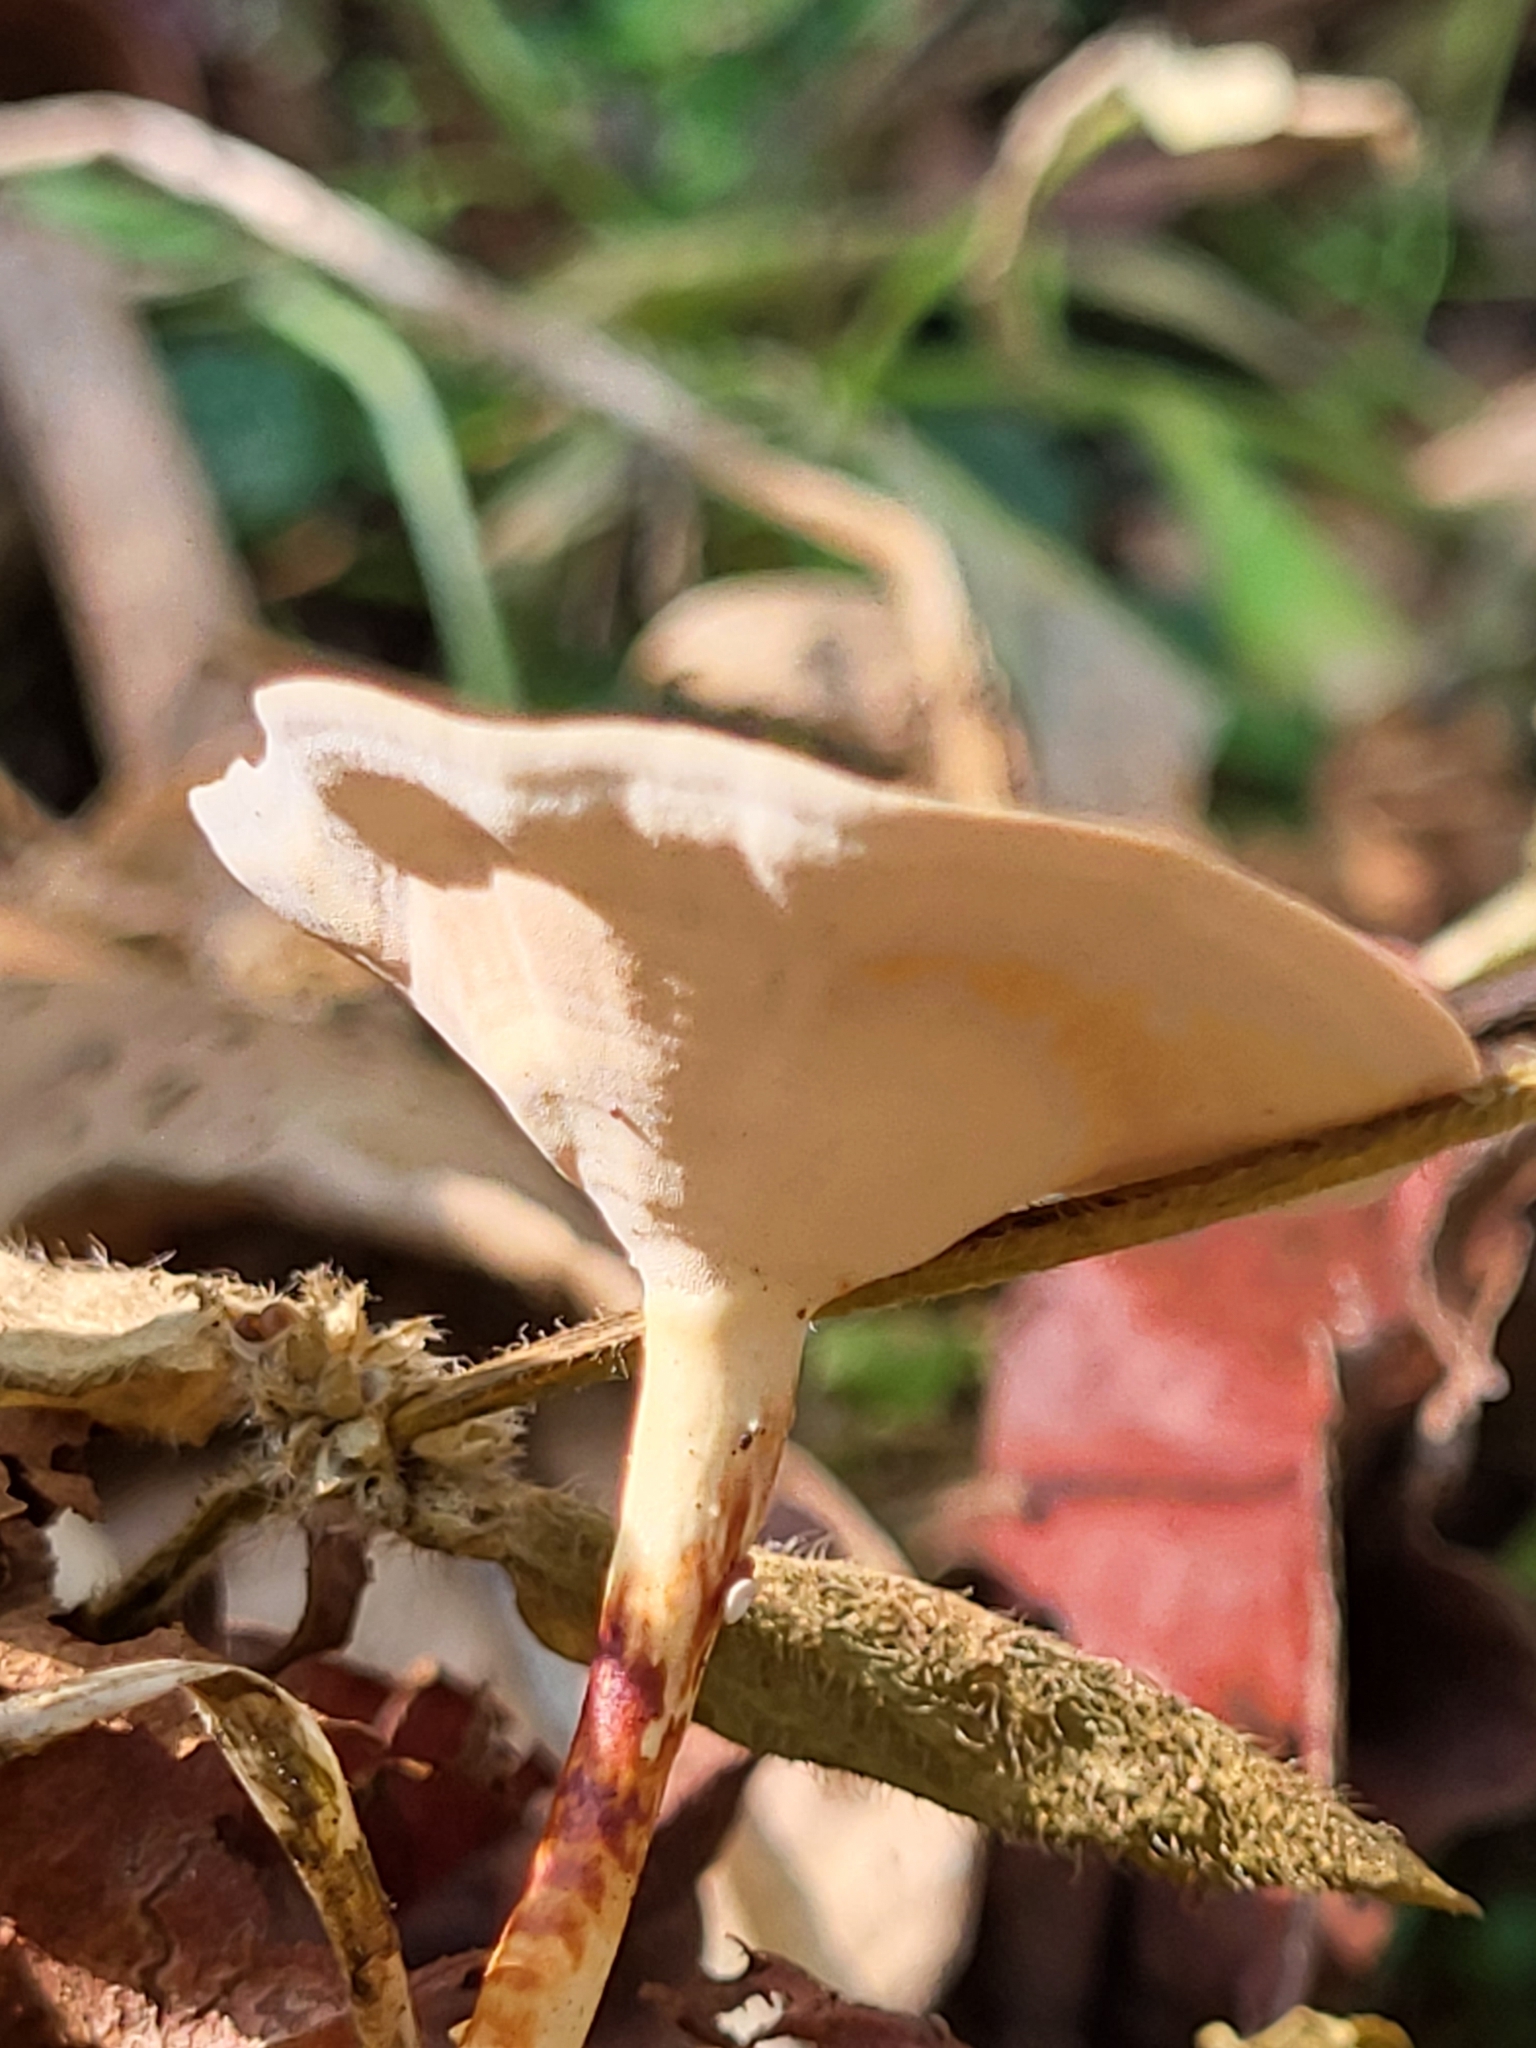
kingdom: Fungi
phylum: Basidiomycota
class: Agaricomycetes
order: Polyporales
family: Polyporaceae
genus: Microporus
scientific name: Microporus xanthopus
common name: Yellow-stemmed micropore
